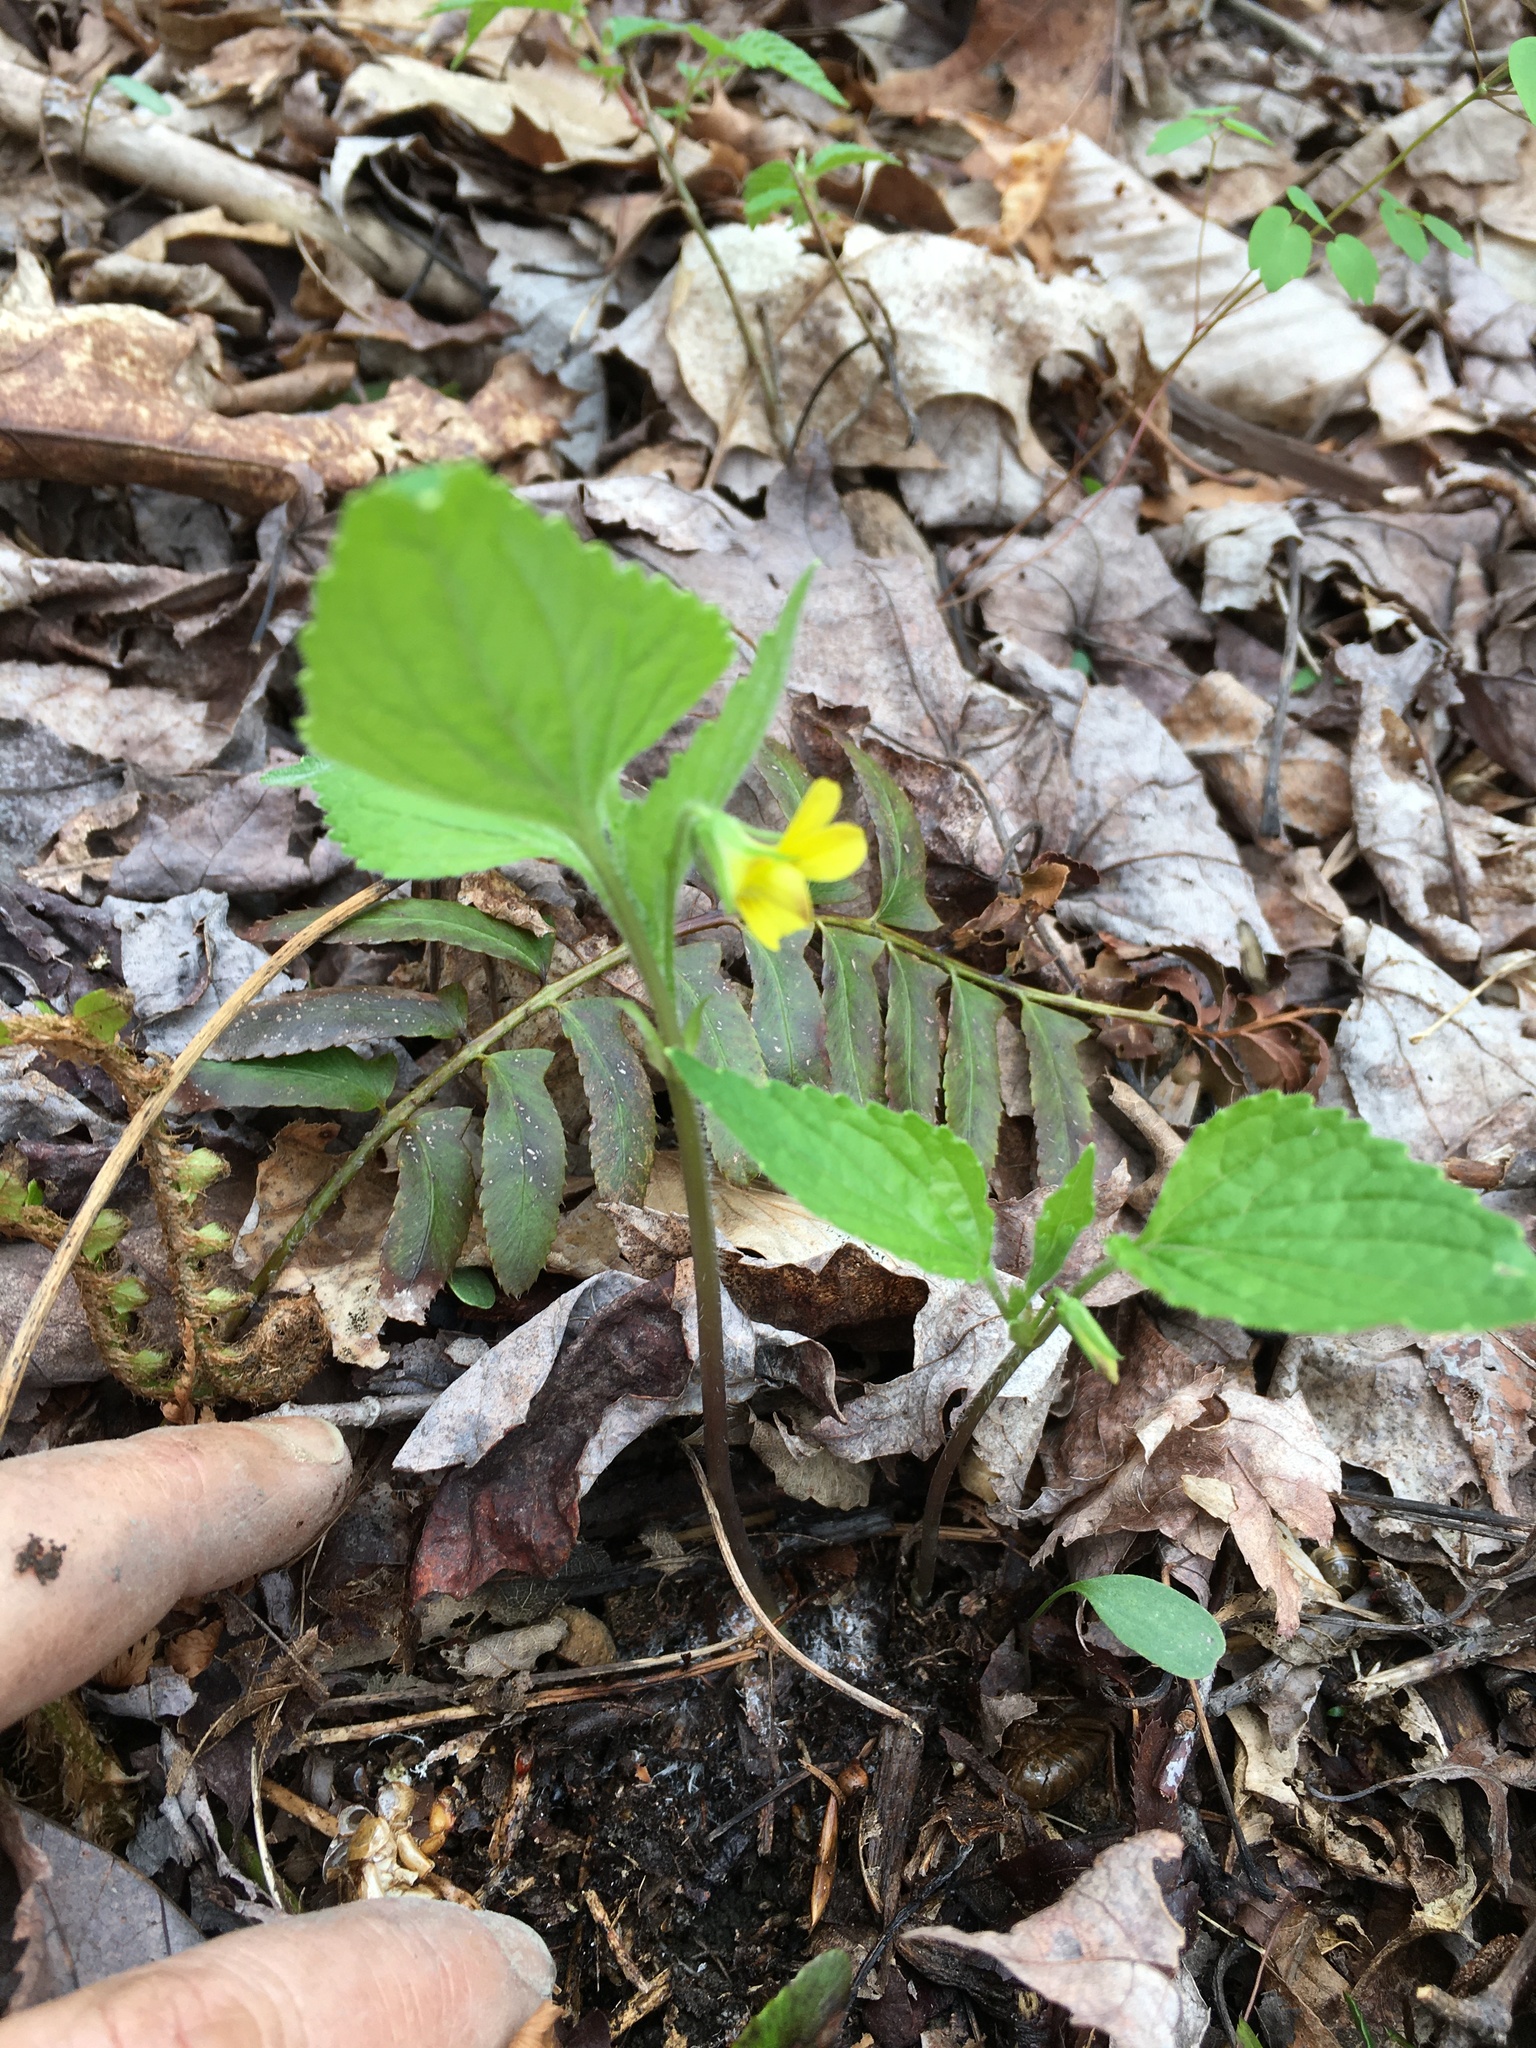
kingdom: Plantae
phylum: Tracheophyta
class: Magnoliopsida
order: Malpighiales
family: Violaceae
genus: Viola
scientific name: Viola glaberrima
